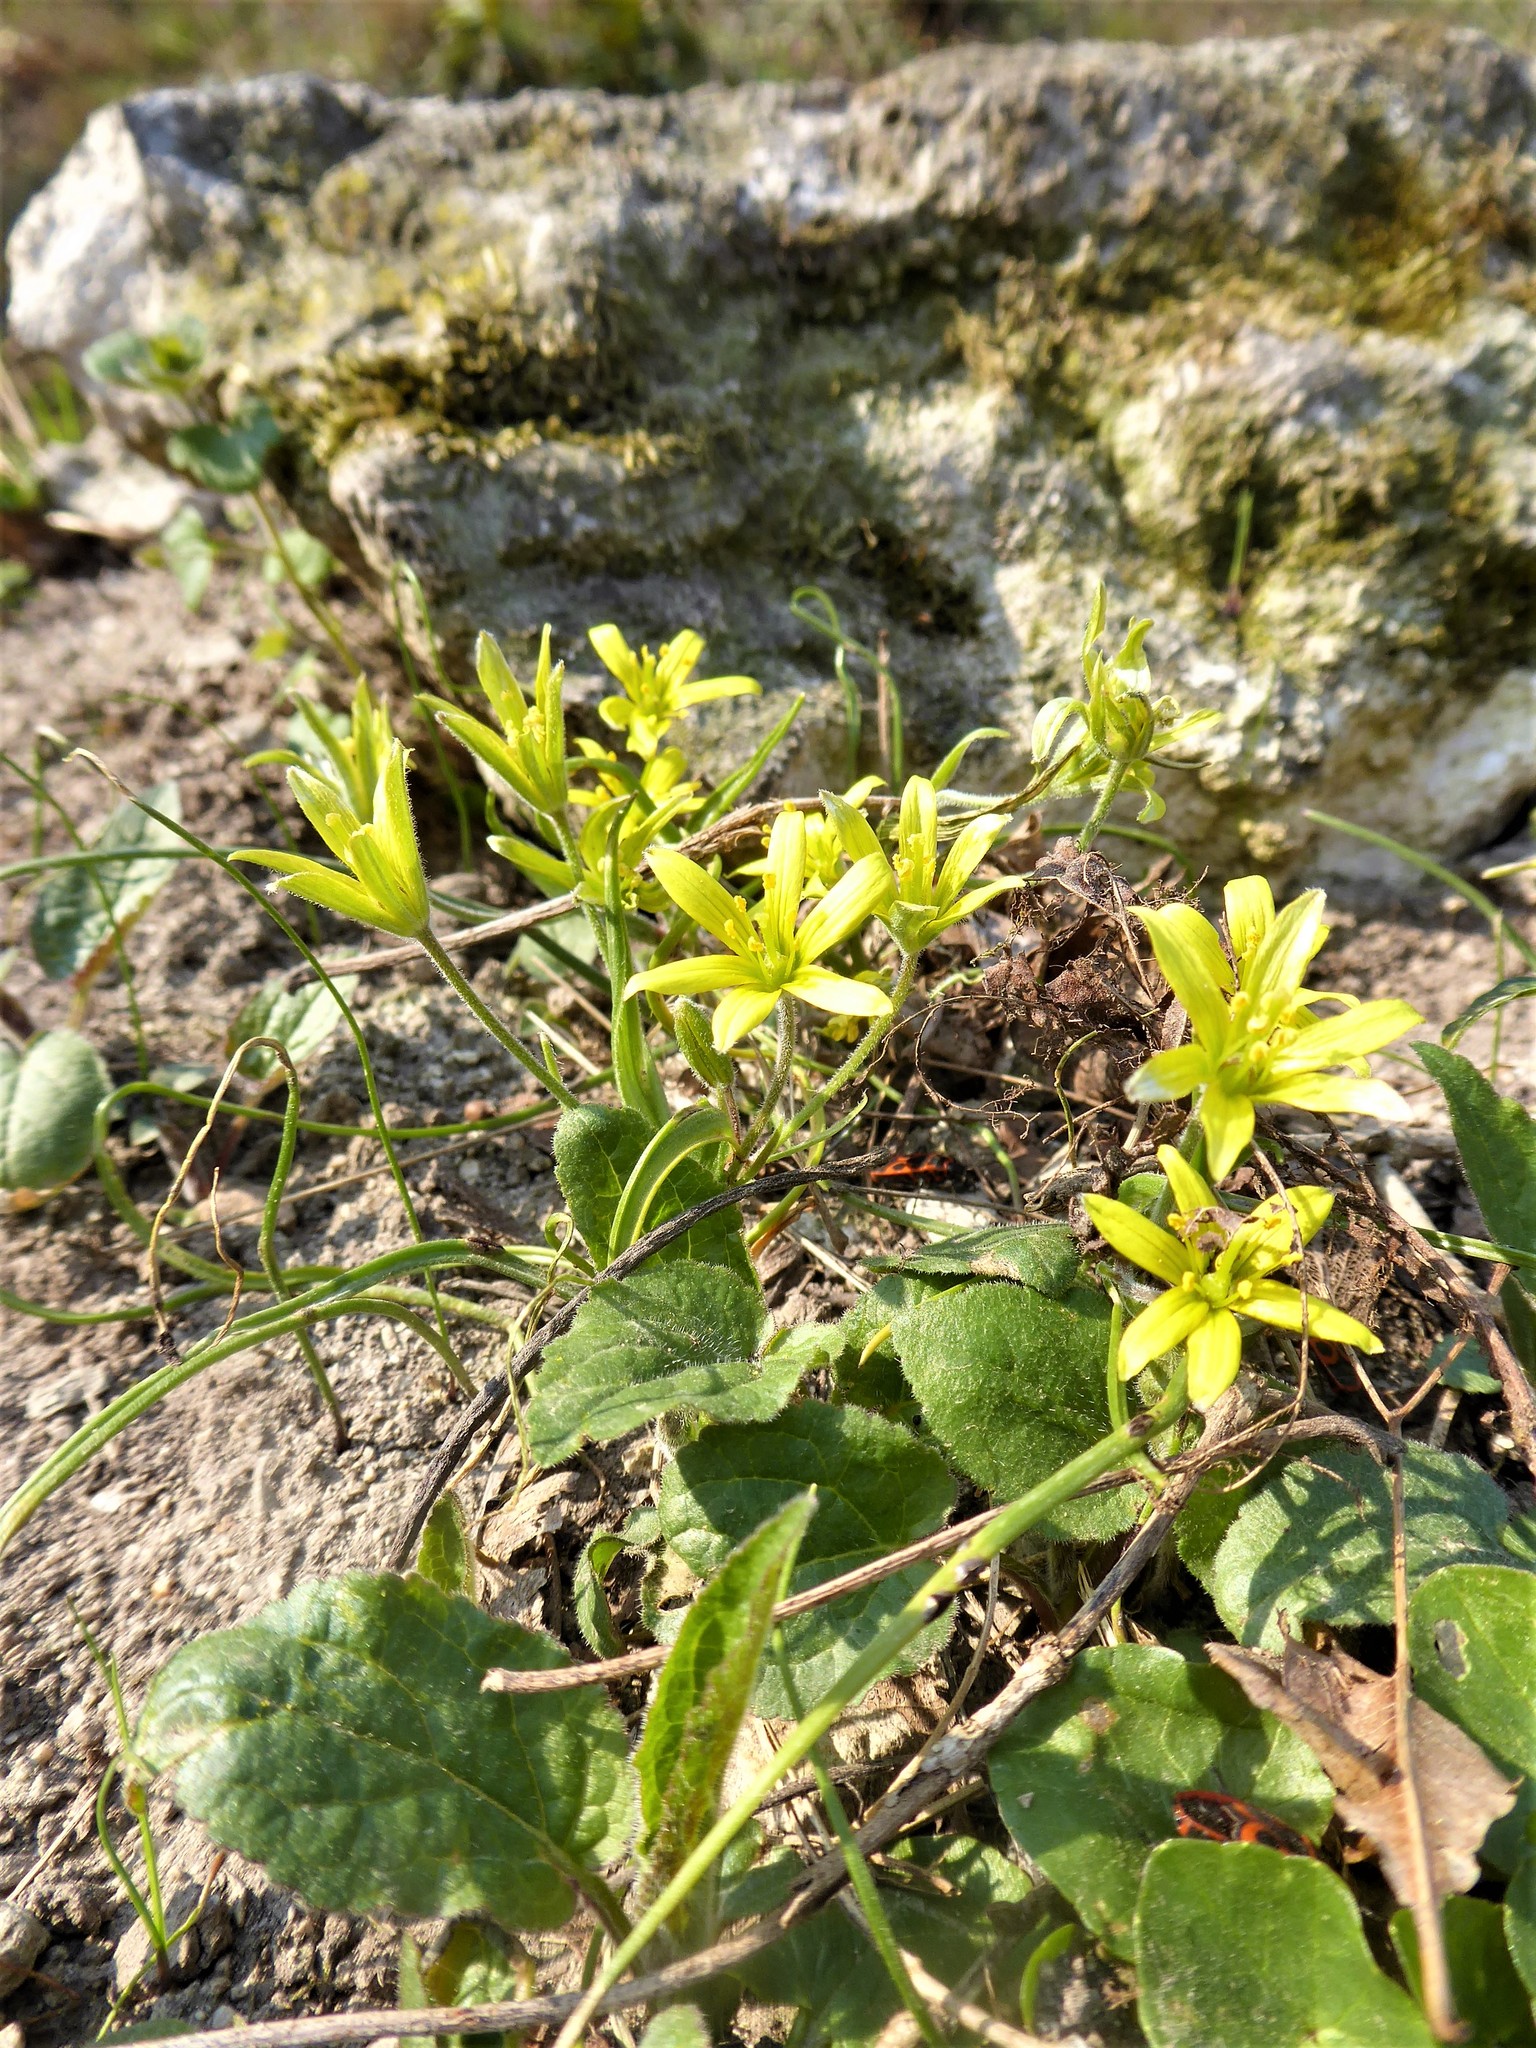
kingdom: Plantae
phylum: Tracheophyta
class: Liliopsida
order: Liliales
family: Liliaceae
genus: Gagea
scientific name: Gagea villosa
